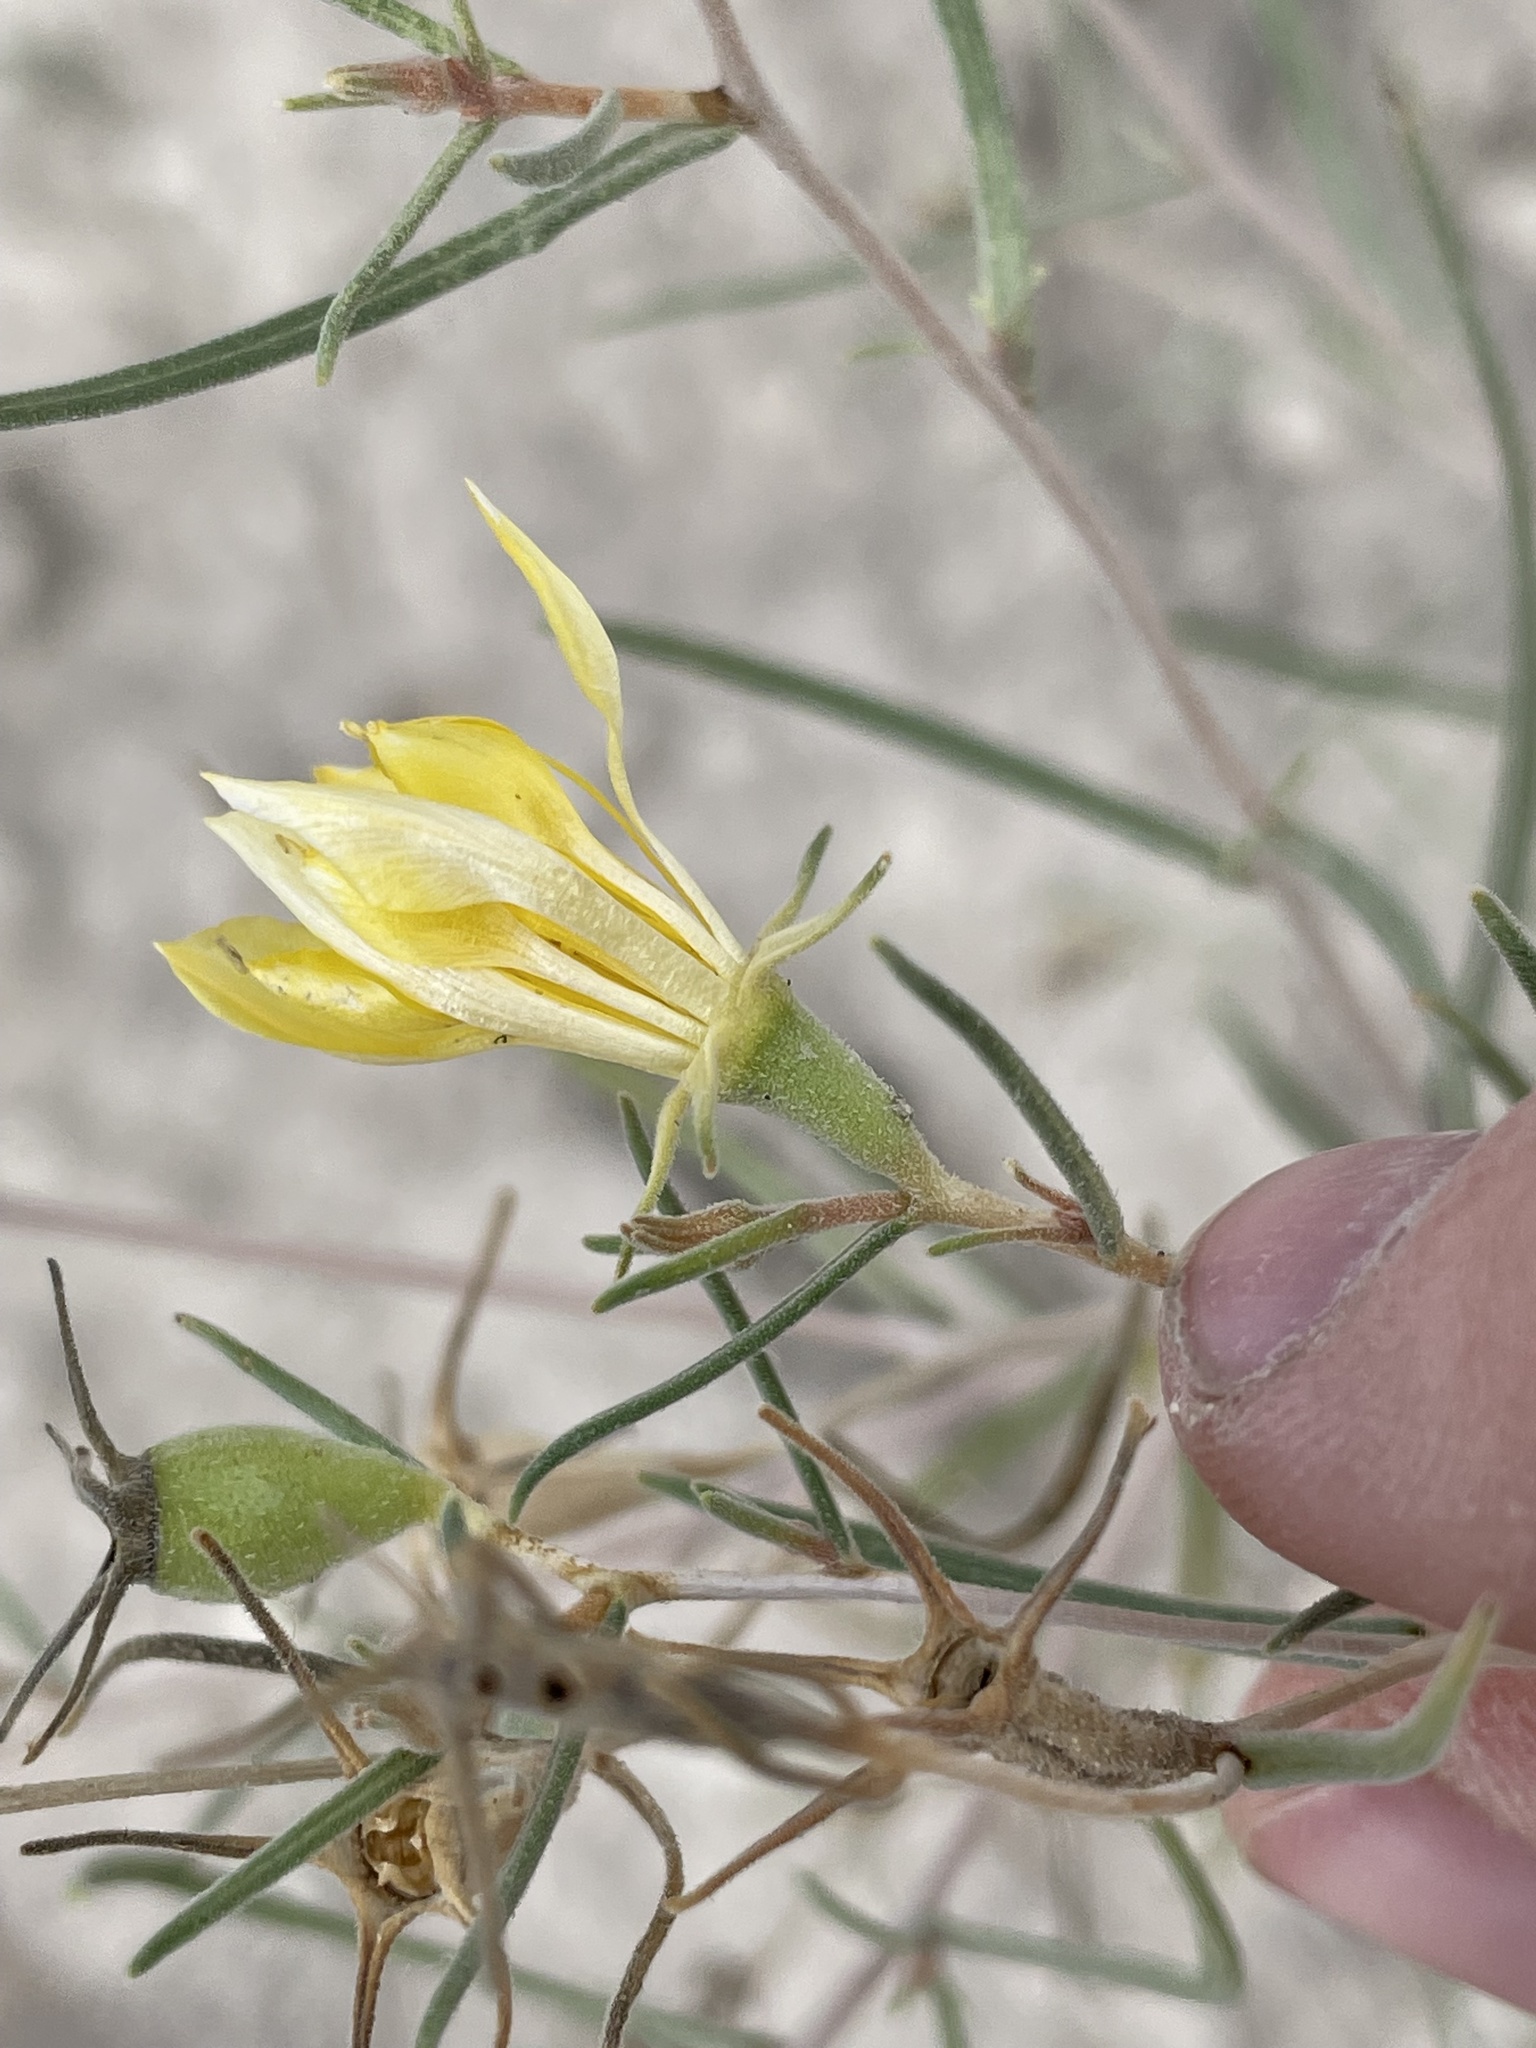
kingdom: Plantae
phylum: Tracheophyta
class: Magnoliopsida
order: Cornales
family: Loasaceae
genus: Mentzelia
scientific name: Mentzelia sivinskii
